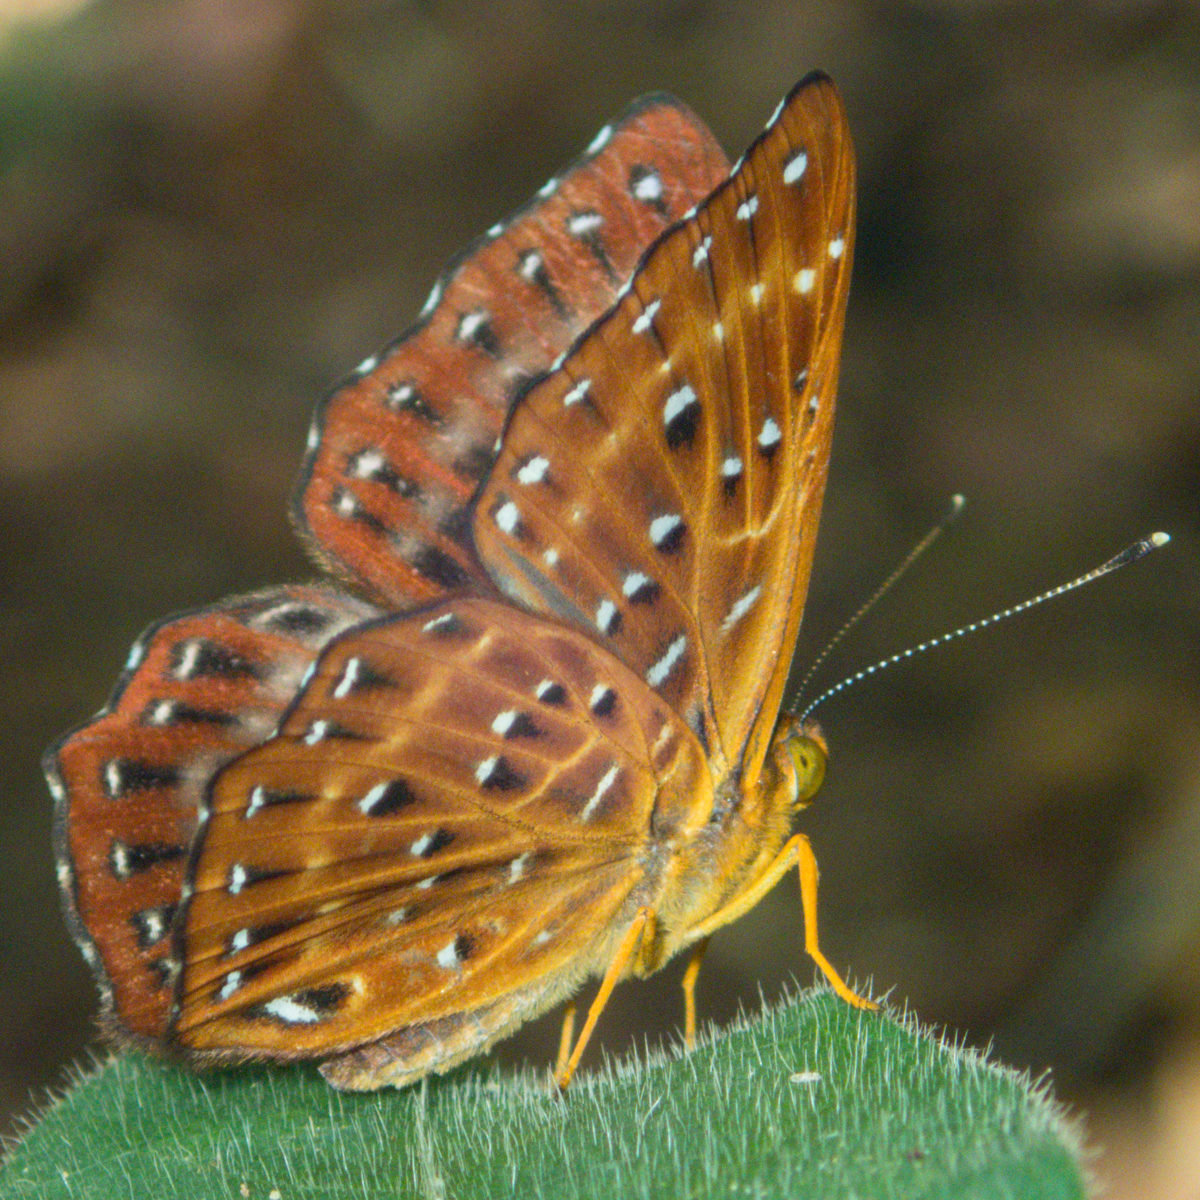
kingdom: Animalia
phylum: Arthropoda
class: Insecta
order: Lepidoptera
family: Riodinidae
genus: Zemeros
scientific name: Zemeros flegyas
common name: Punchinello
